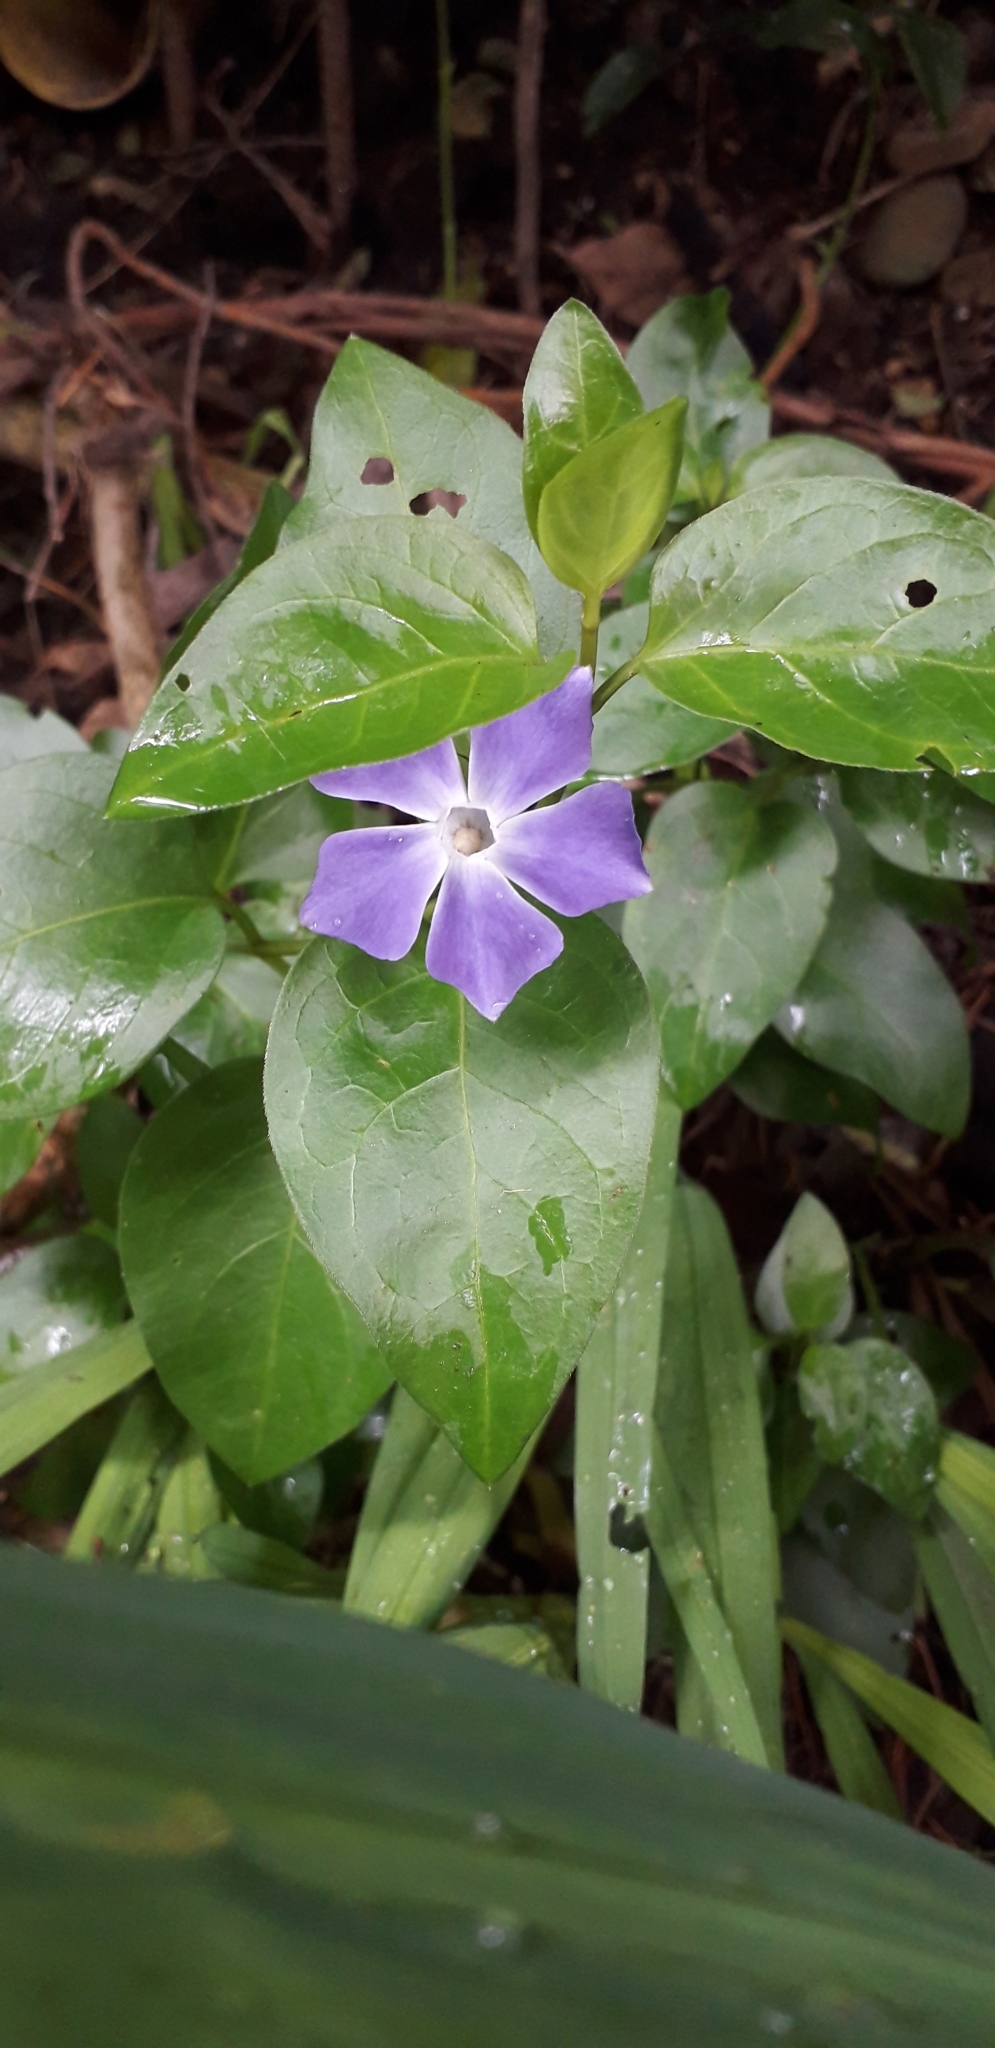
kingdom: Plantae
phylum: Tracheophyta
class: Magnoliopsida
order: Gentianales
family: Apocynaceae
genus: Vinca
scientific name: Vinca major
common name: Greater periwinkle
